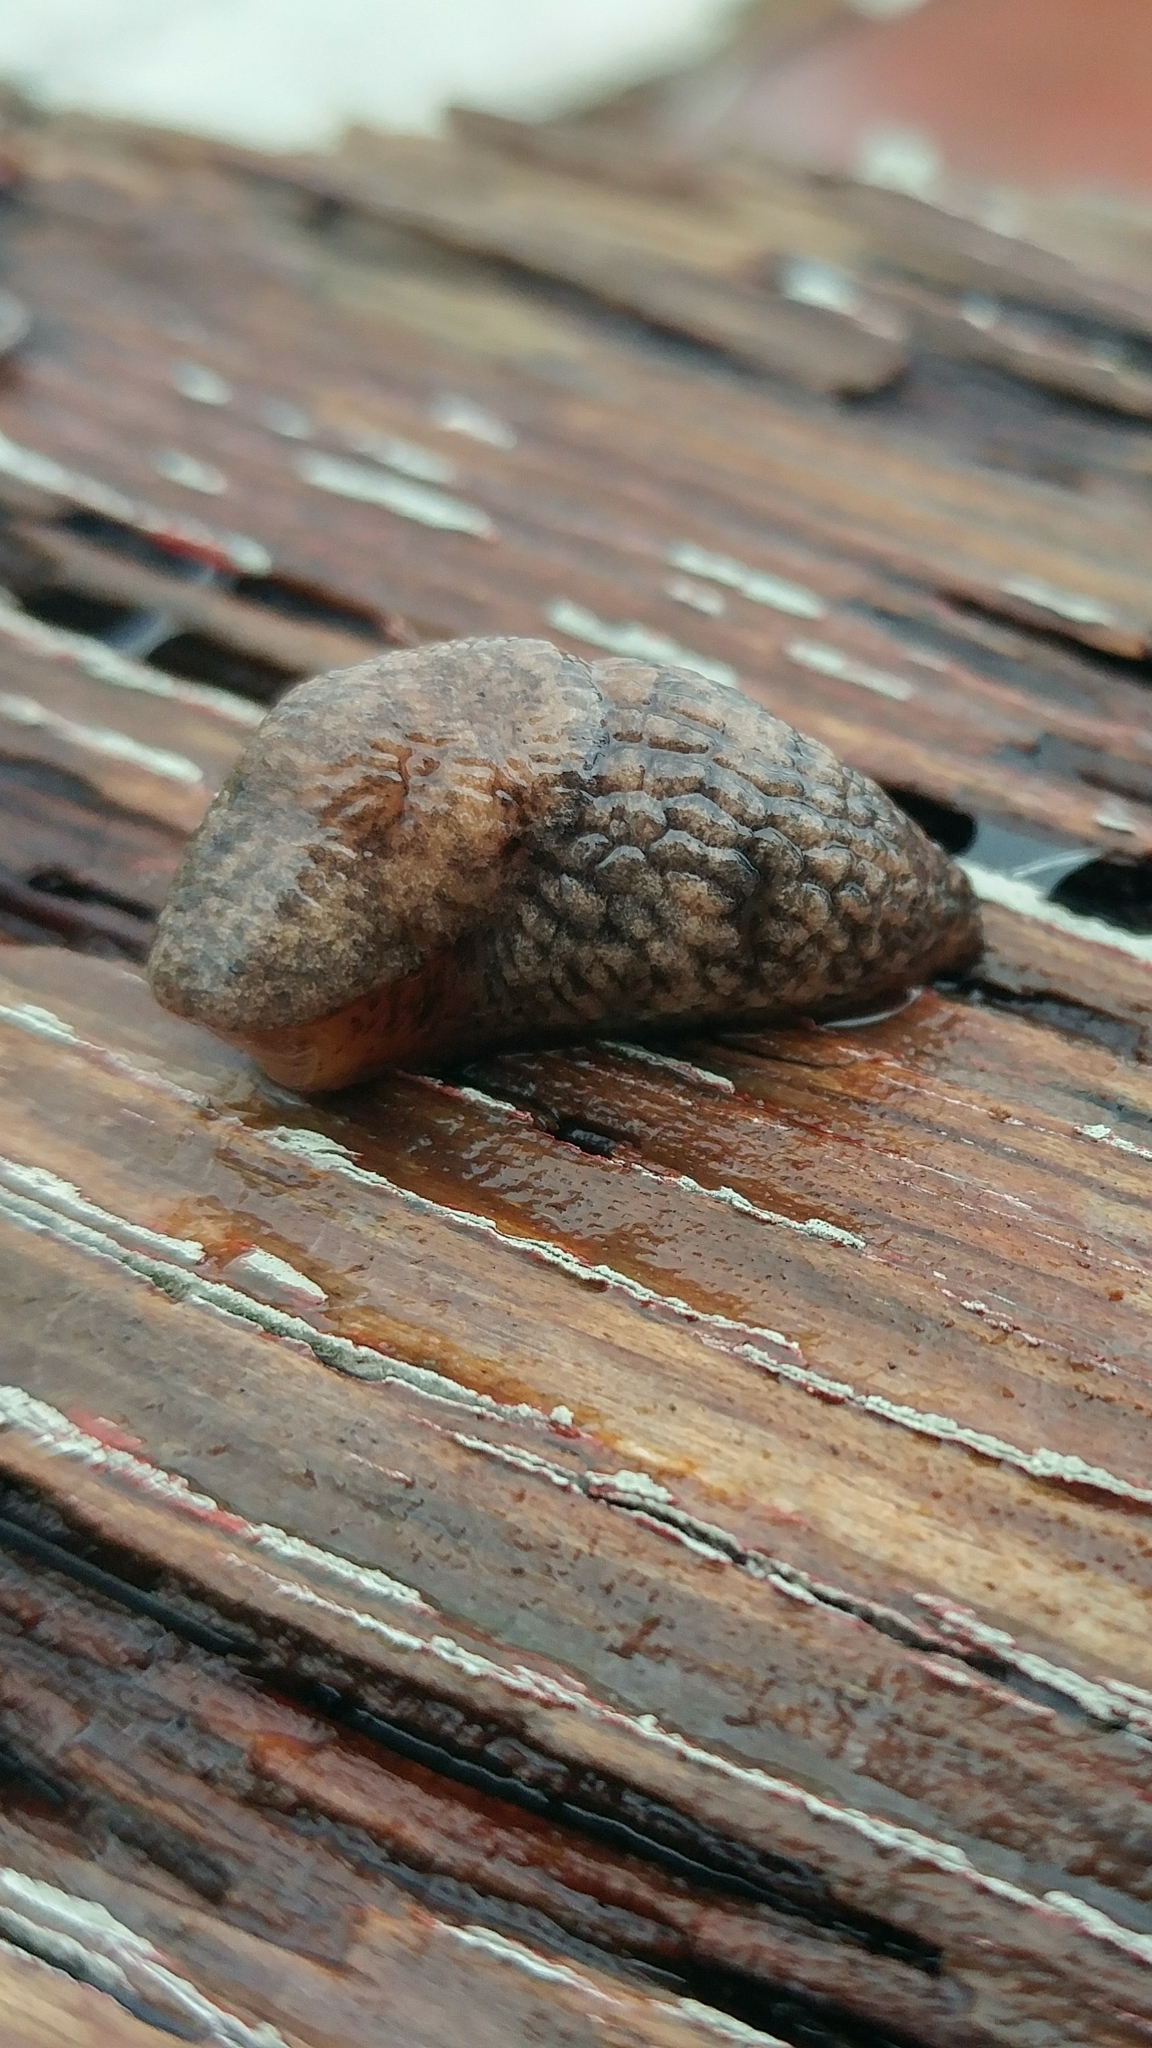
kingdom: Animalia
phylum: Mollusca
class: Gastropoda
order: Stylommatophora
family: Agriolimacidae
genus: Deroceras
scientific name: Deroceras reticulatum
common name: Gray field slug
